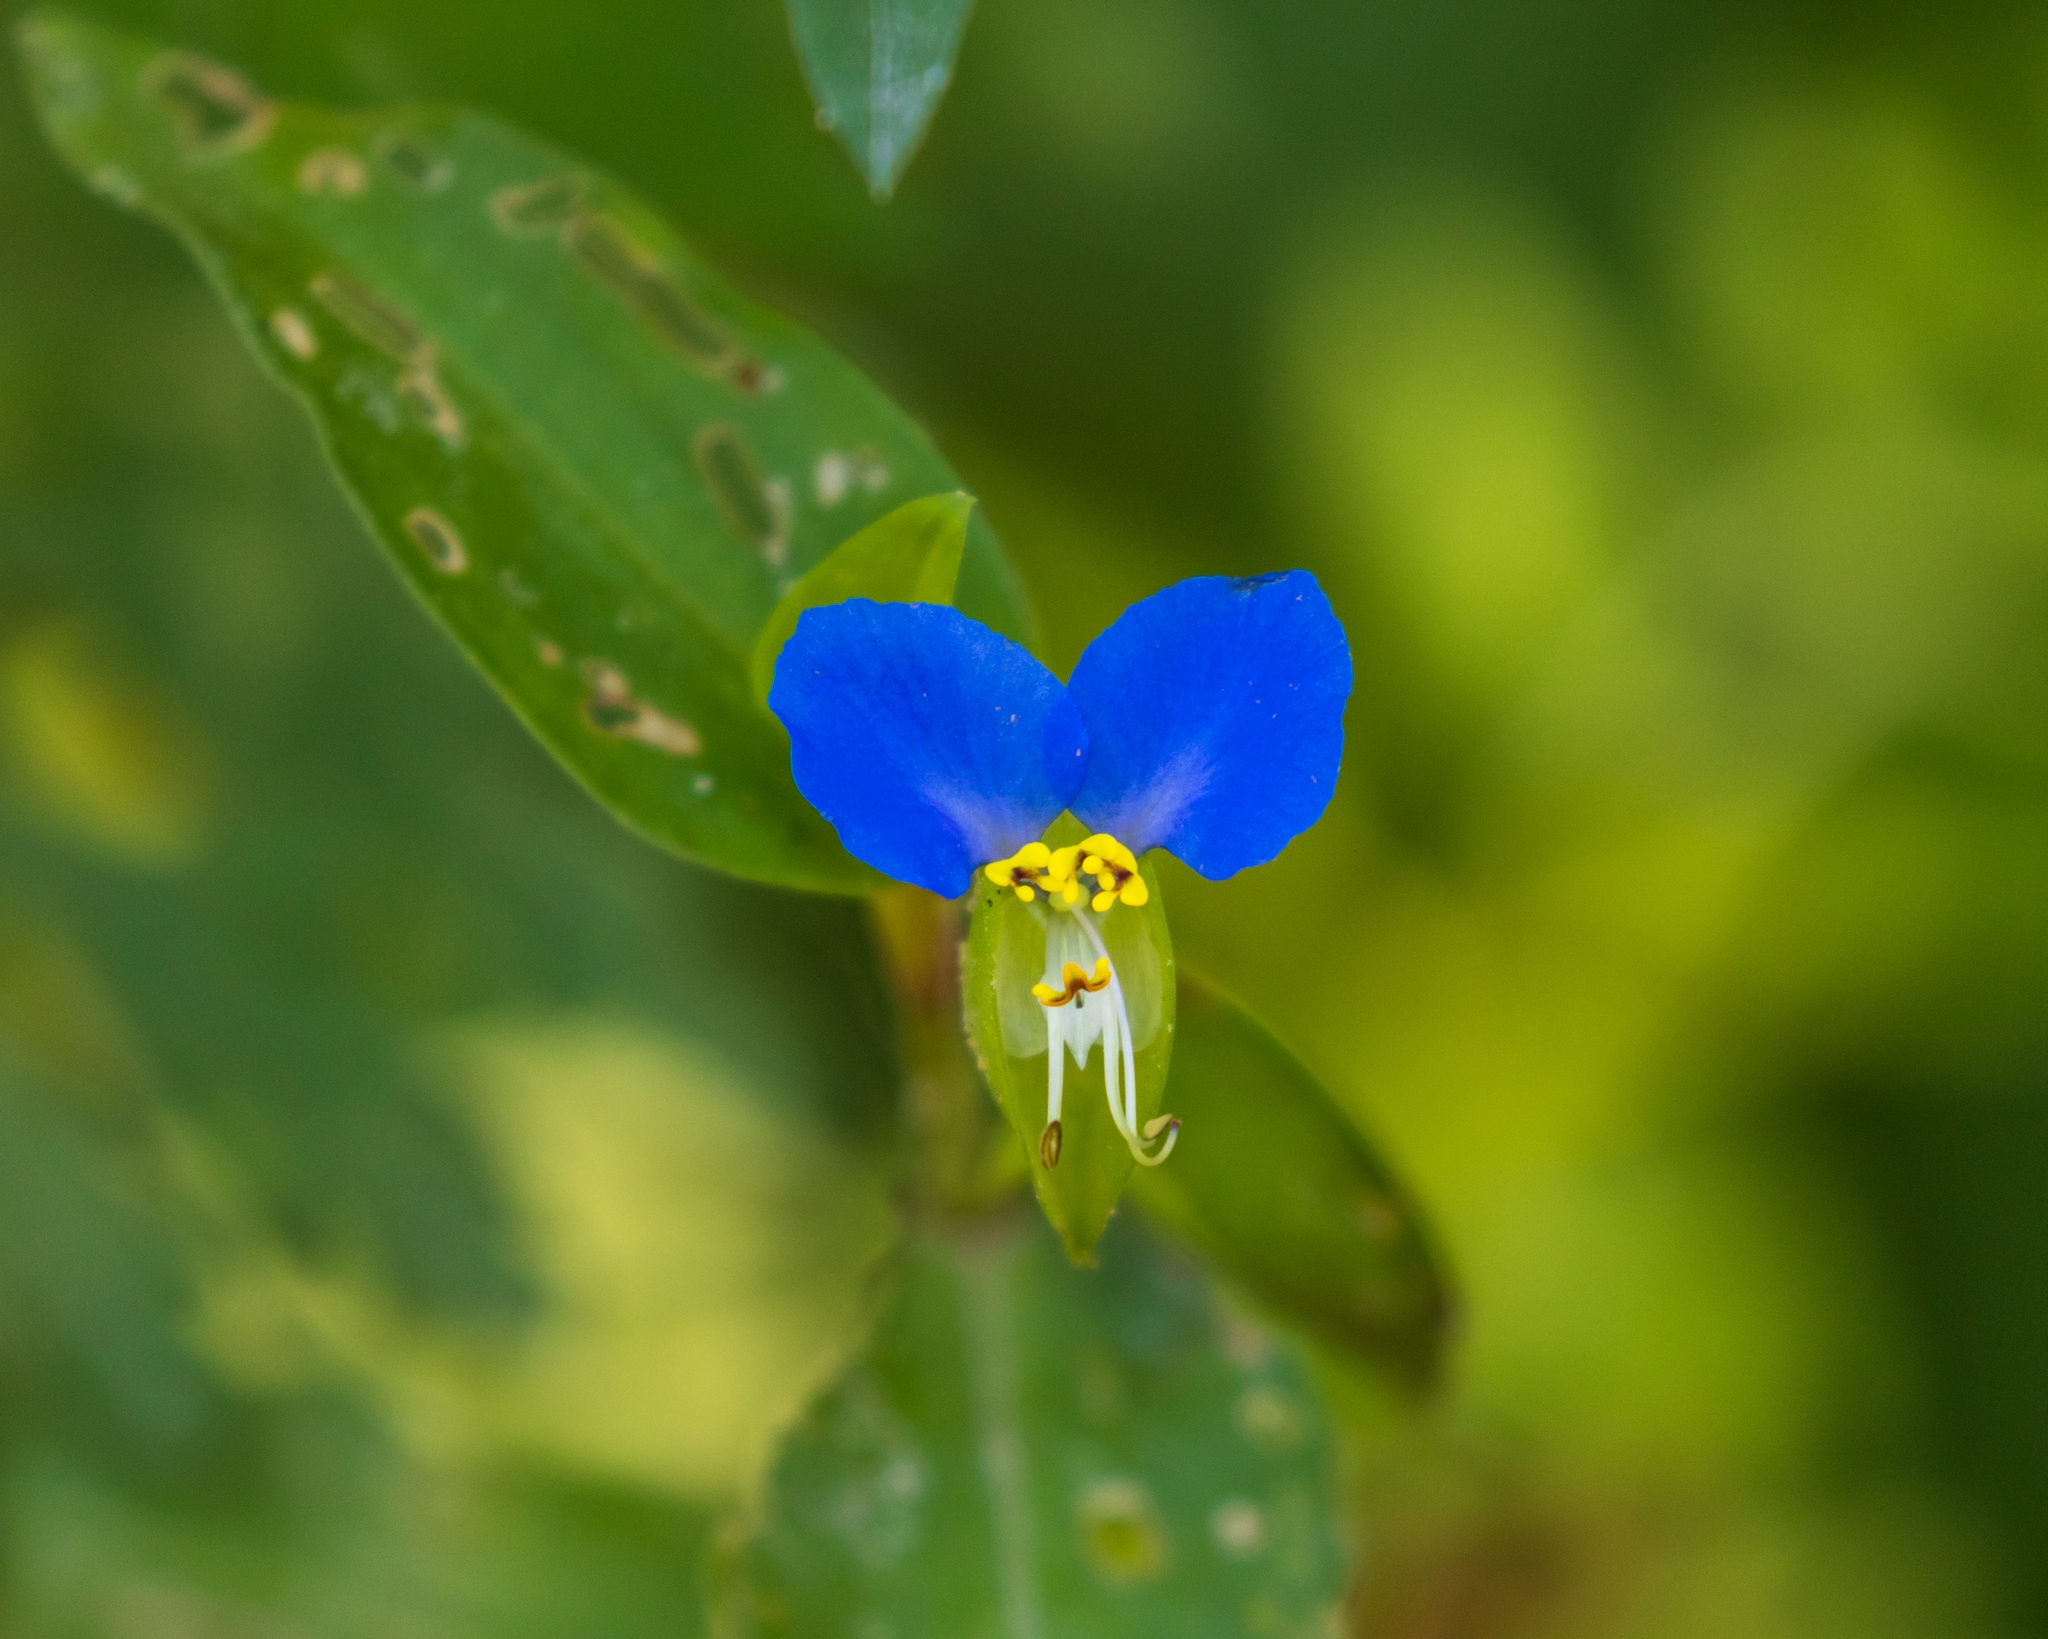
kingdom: Plantae
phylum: Tracheophyta
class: Liliopsida
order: Commelinales
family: Commelinaceae
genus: Commelina
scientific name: Commelina communis
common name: Asiatic dayflower
